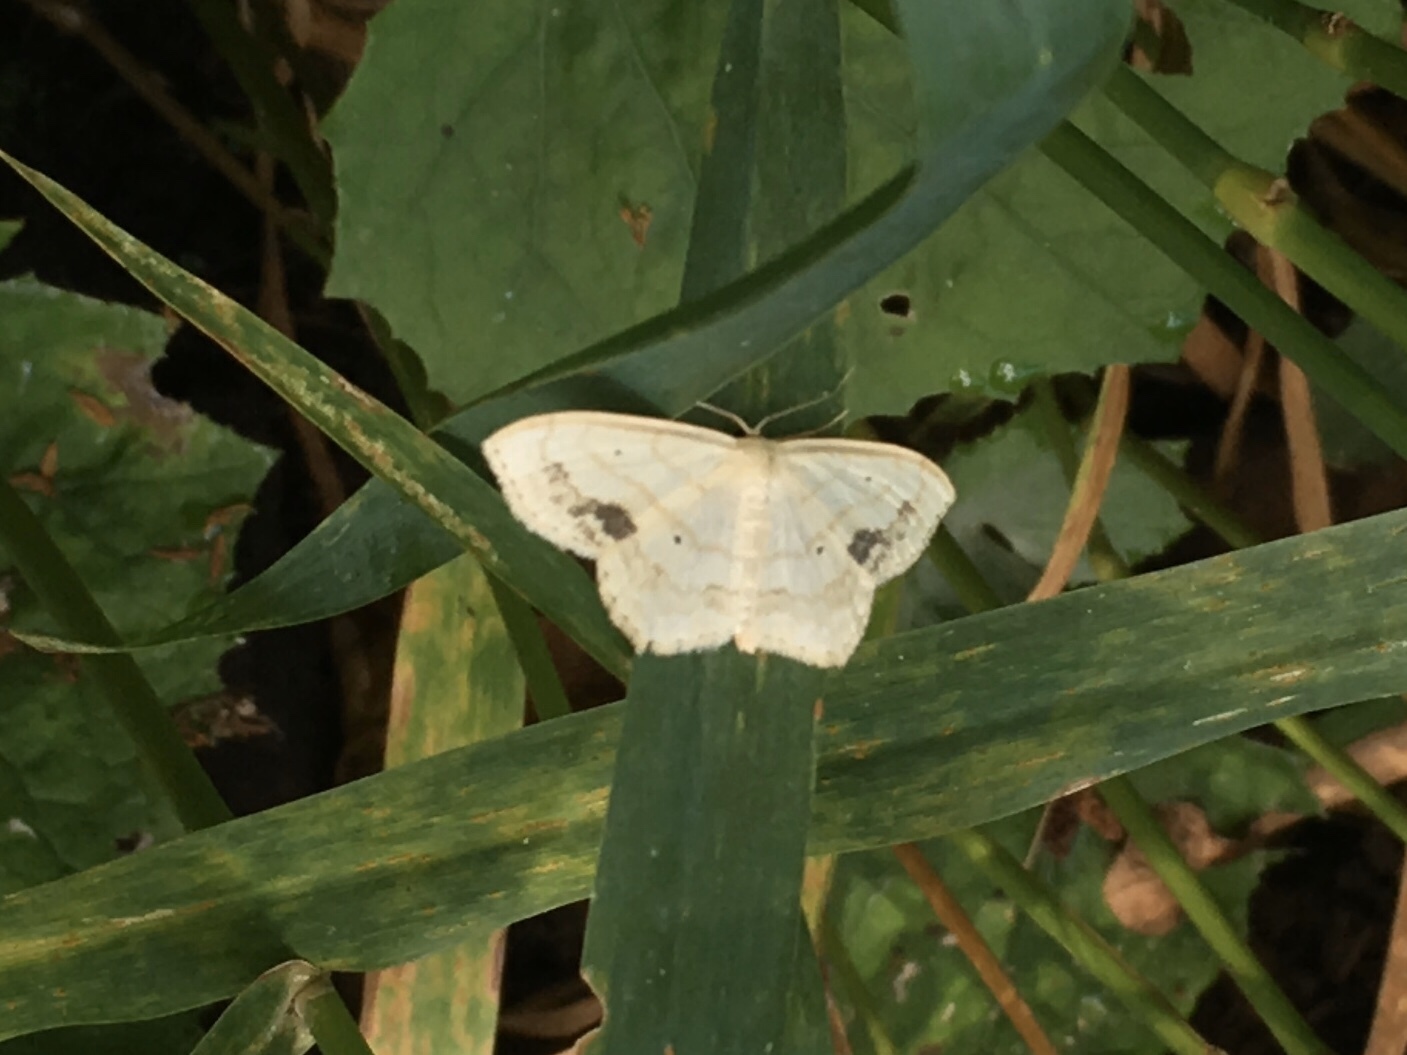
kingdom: Animalia
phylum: Arthropoda
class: Insecta
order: Lepidoptera
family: Geometridae
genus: Scopula
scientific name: Scopula limboundata
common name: Large lace border
